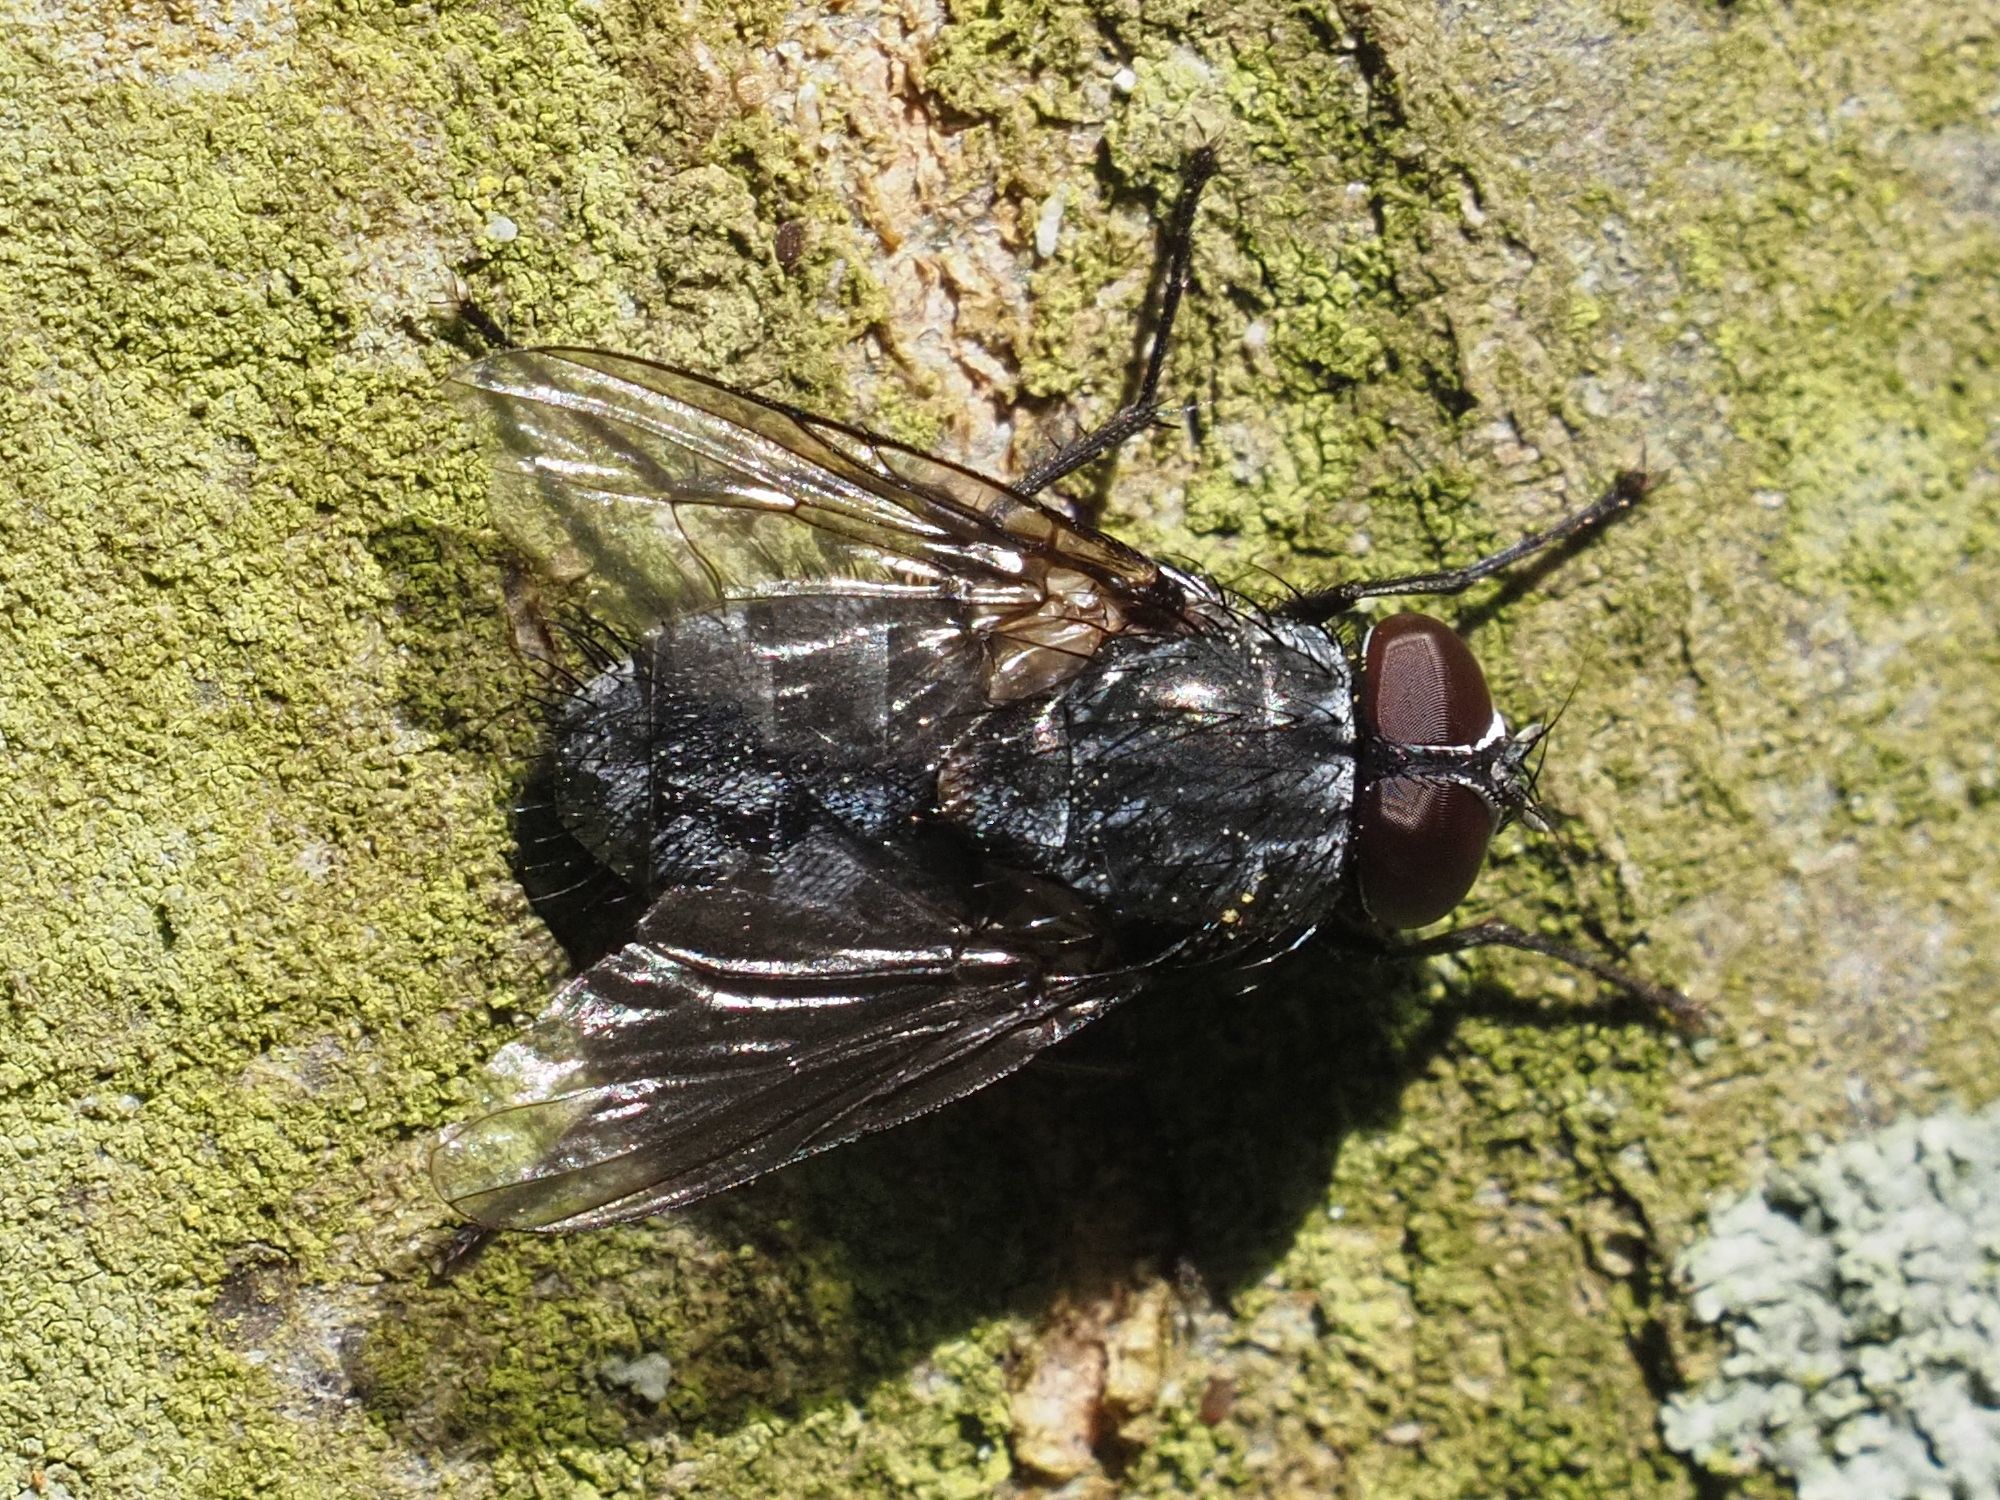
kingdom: Animalia
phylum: Arthropoda
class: Insecta
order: Diptera
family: Muscidae
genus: Muscina
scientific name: Muscina levida
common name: House fly
